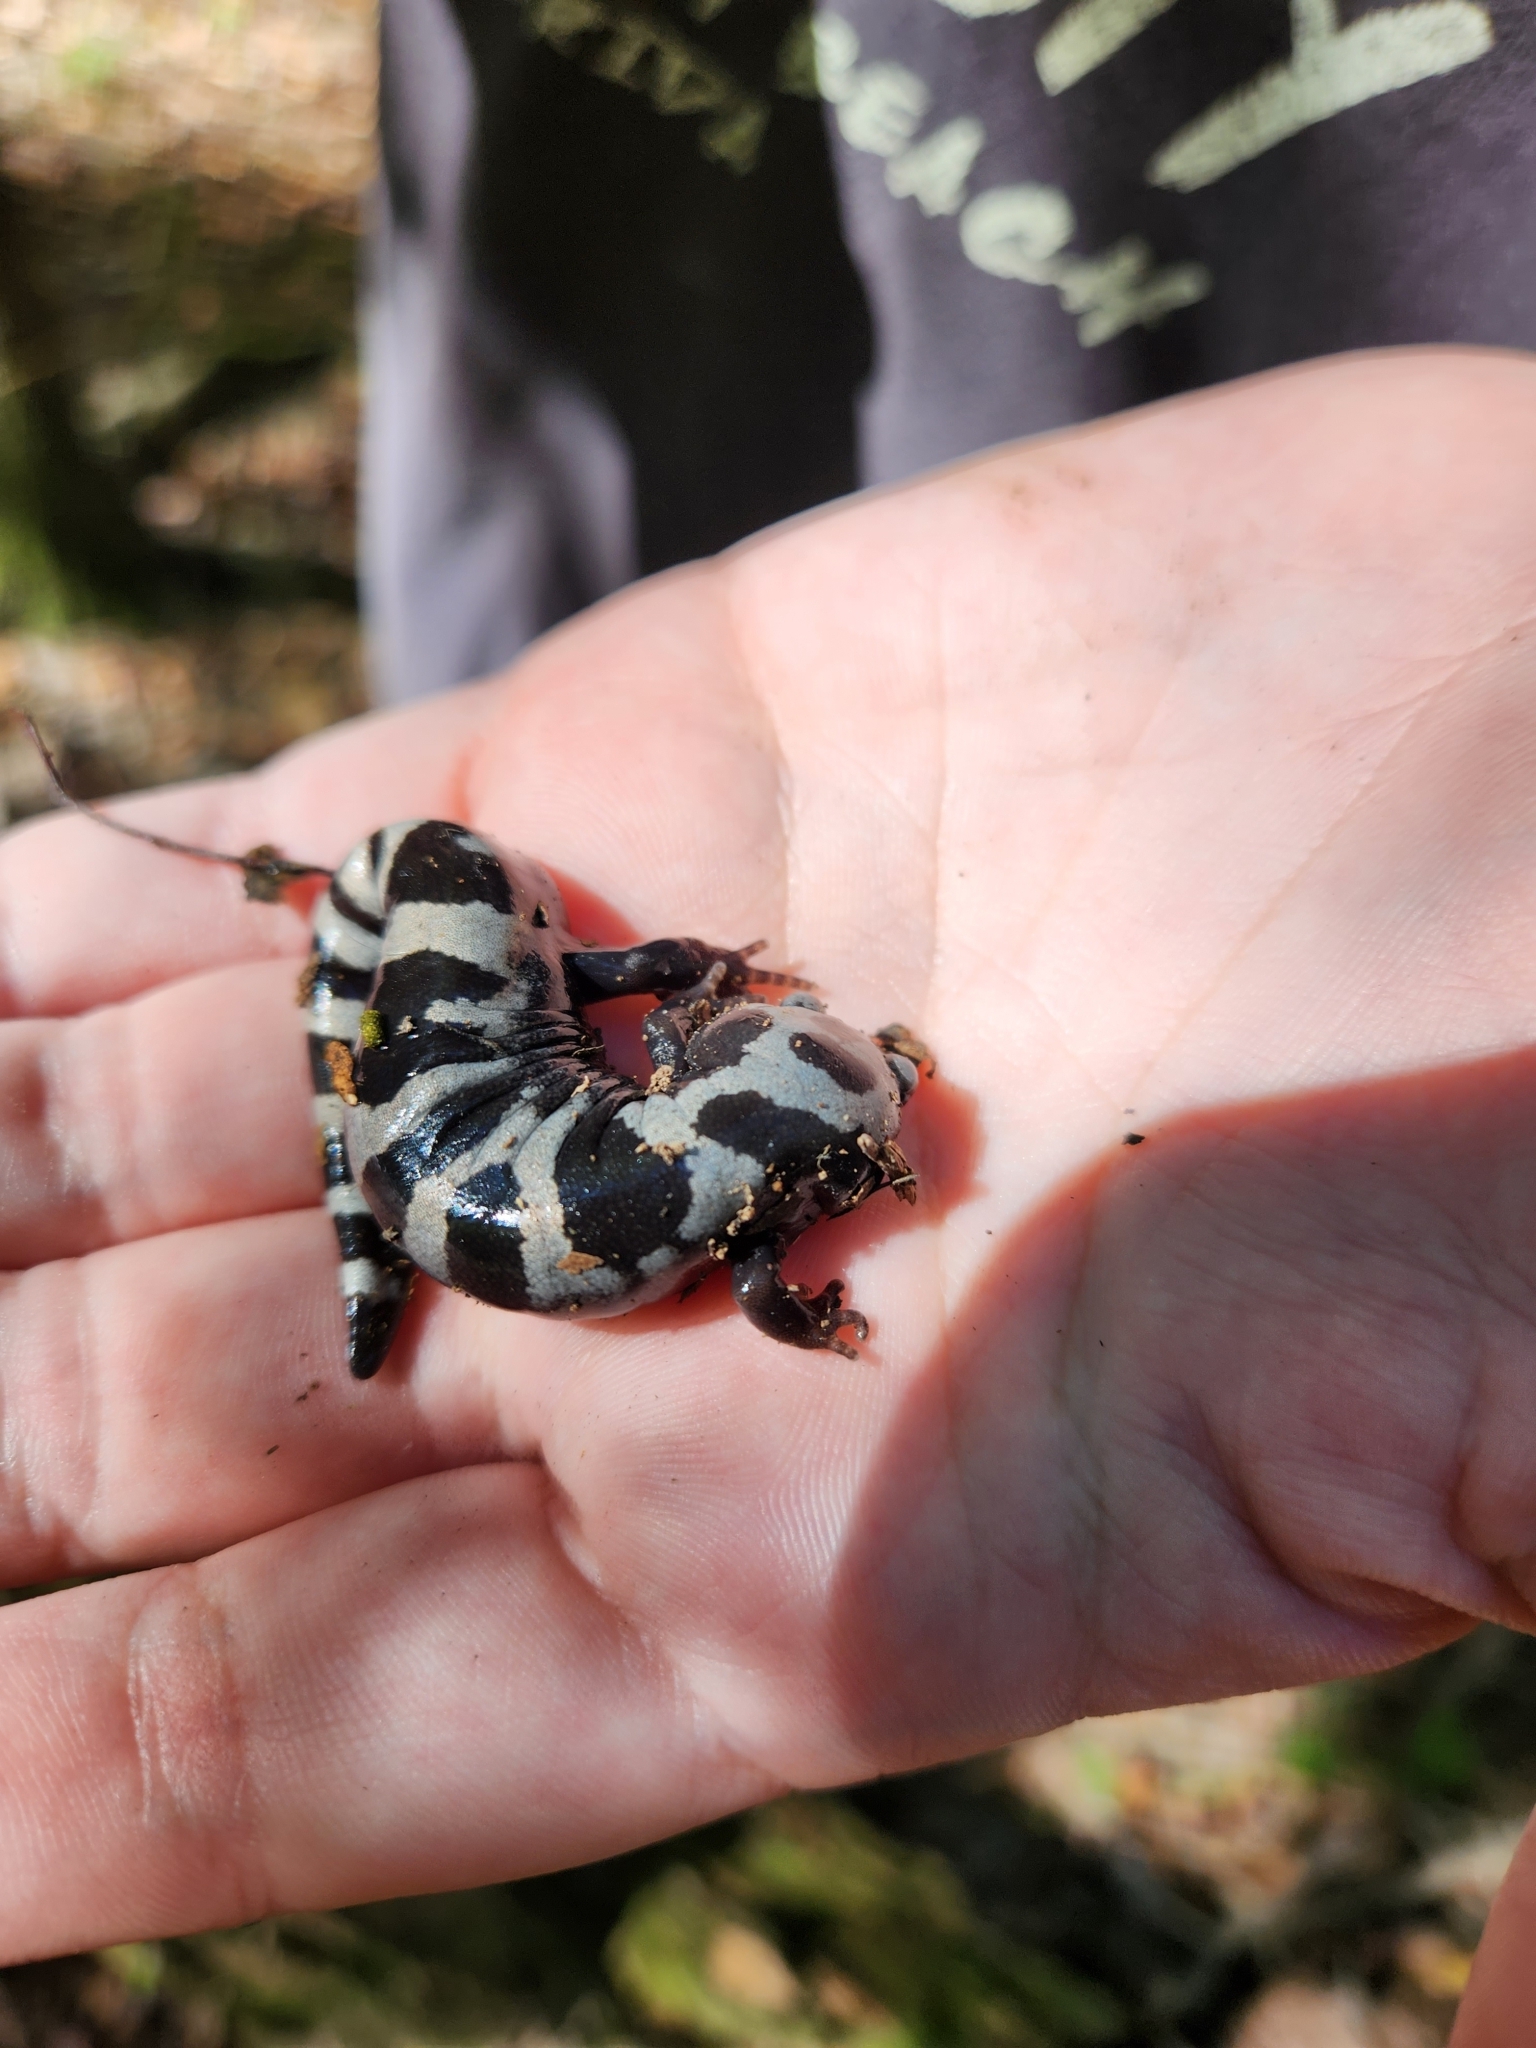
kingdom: Animalia
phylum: Chordata
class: Amphibia
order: Caudata
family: Ambystomatidae
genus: Ambystoma
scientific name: Ambystoma opacum
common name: Marbled salamander
